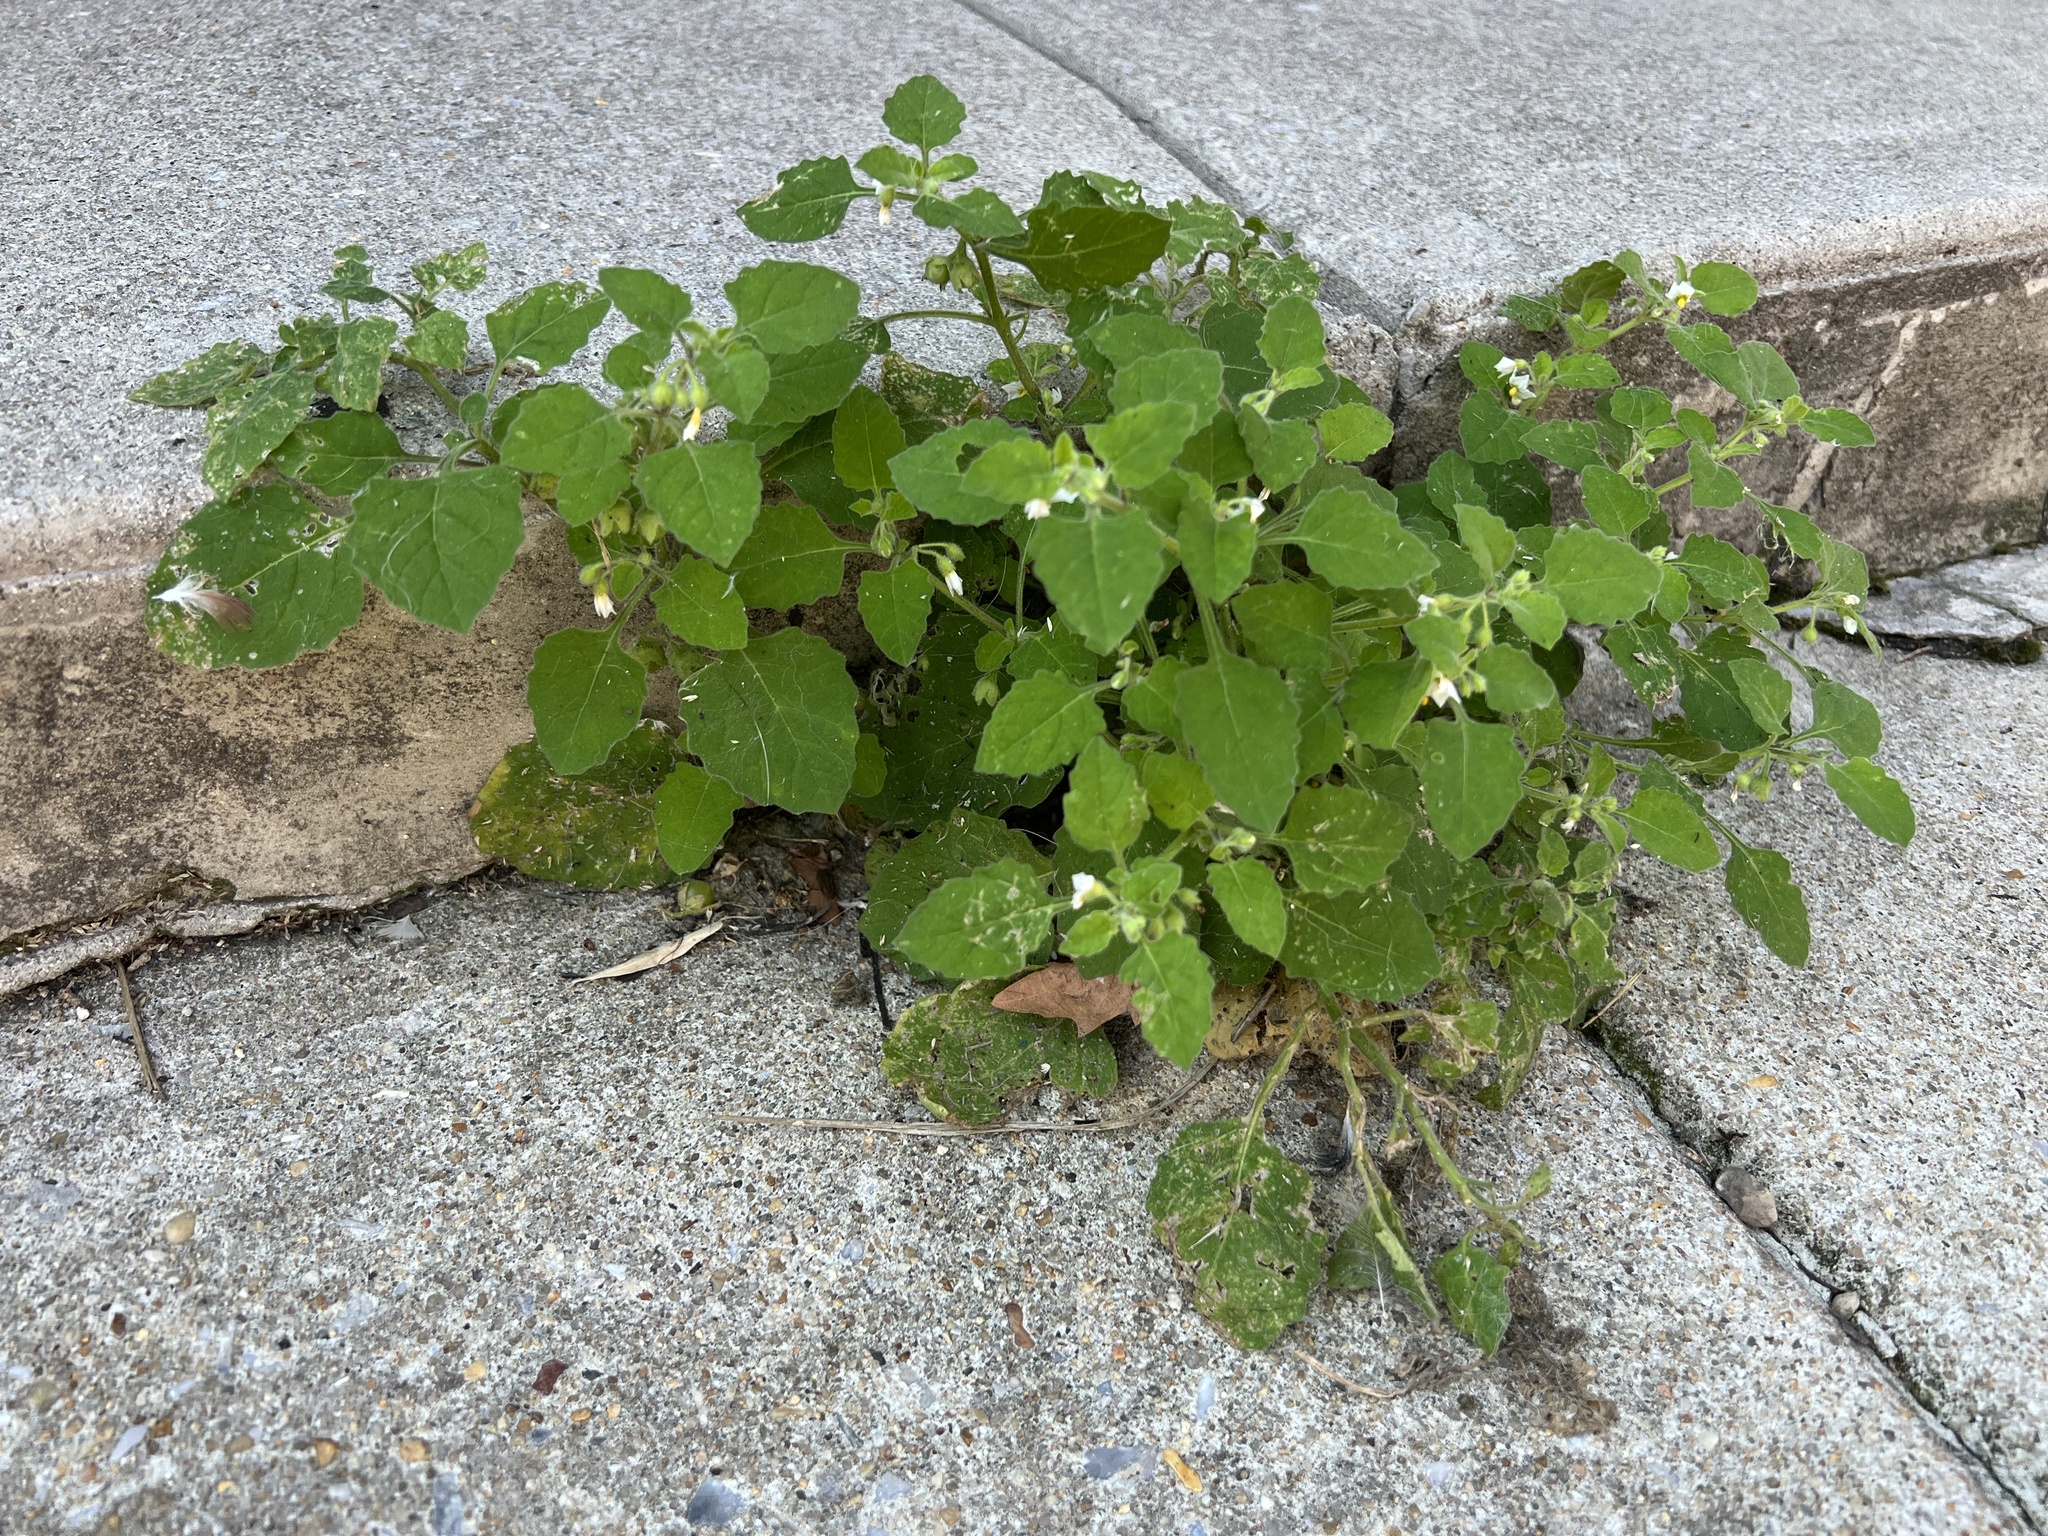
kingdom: Plantae
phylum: Tracheophyta
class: Magnoliopsida
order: Solanales
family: Solanaceae
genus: Solanum
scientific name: Solanum sarrachoides
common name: Leafy-fruited nightshade
